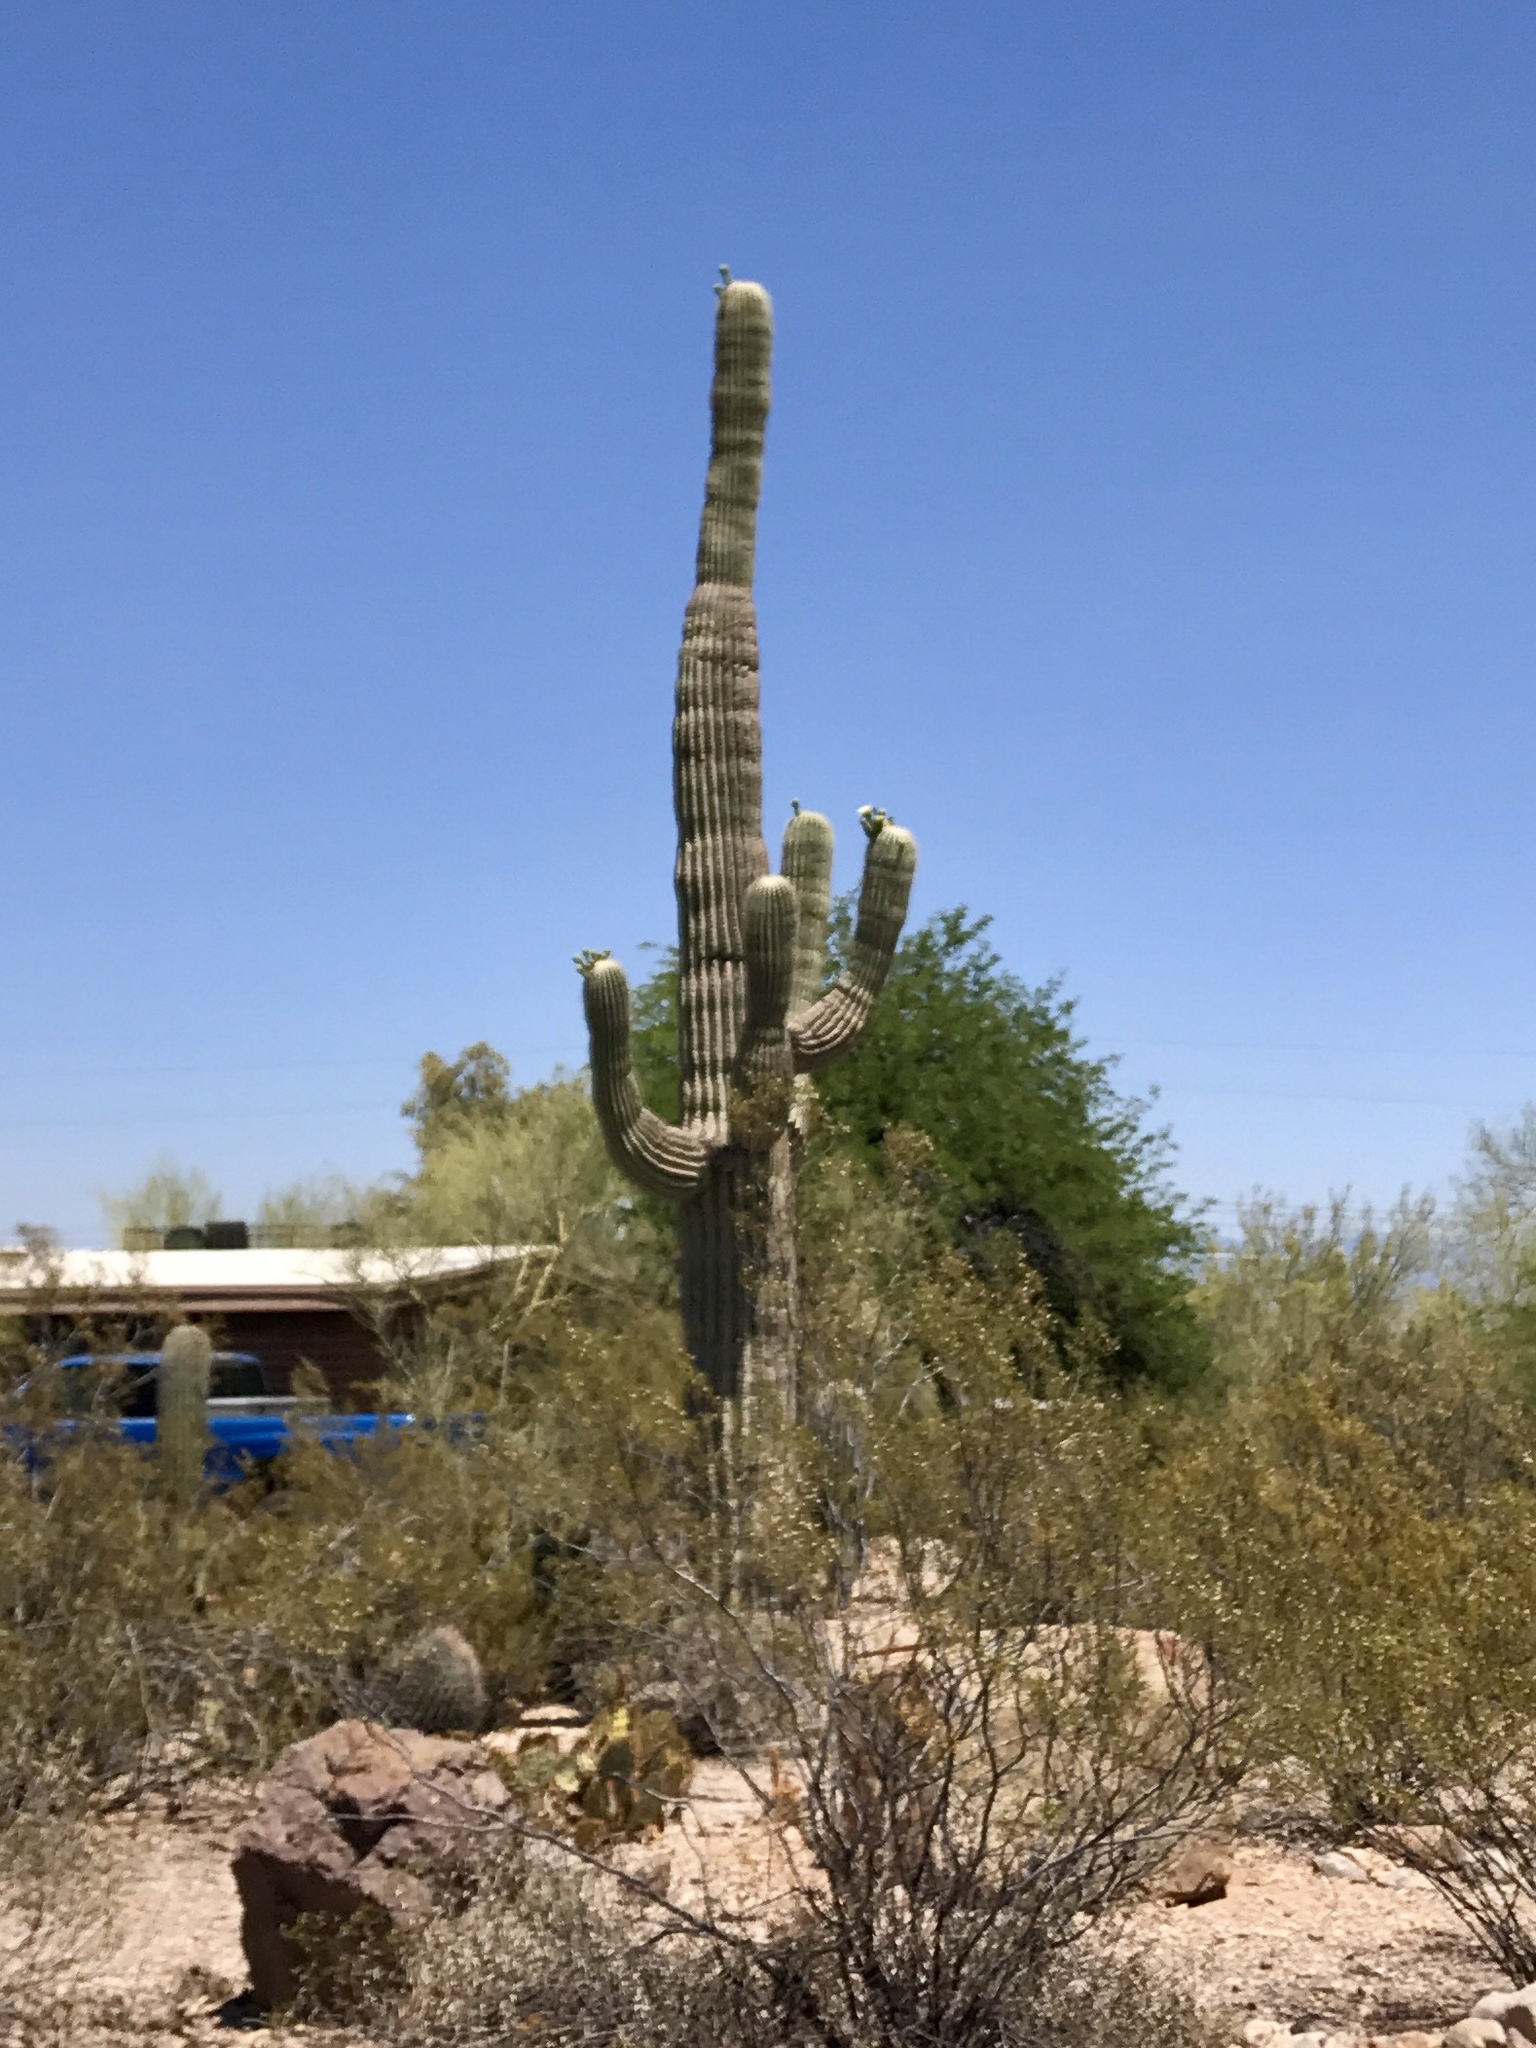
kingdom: Plantae
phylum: Tracheophyta
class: Magnoliopsida
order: Caryophyllales
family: Cactaceae
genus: Carnegiea
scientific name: Carnegiea gigantea
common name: Saguaro
